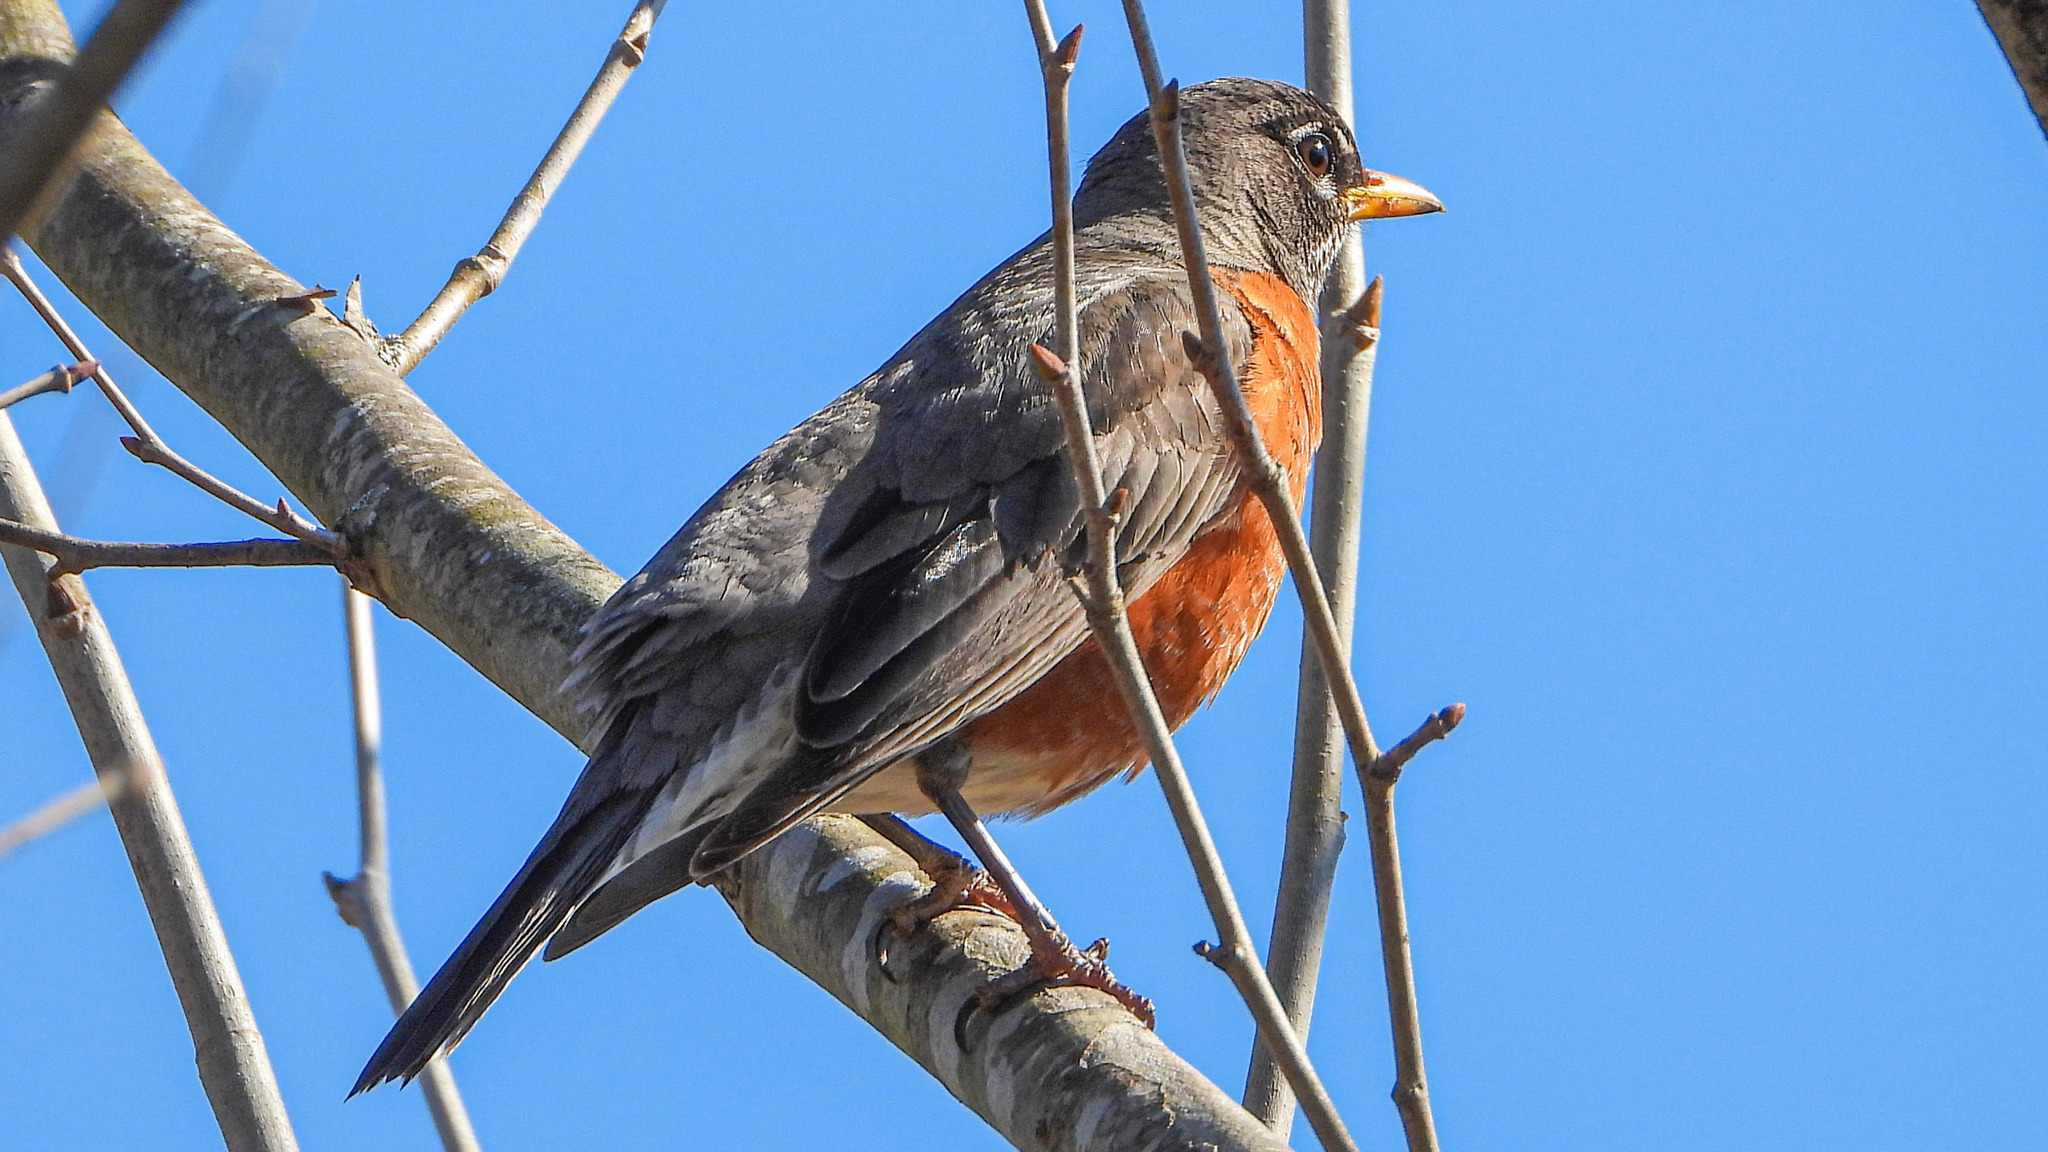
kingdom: Animalia
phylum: Chordata
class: Aves
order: Passeriformes
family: Turdidae
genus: Turdus
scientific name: Turdus migratorius
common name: American robin
